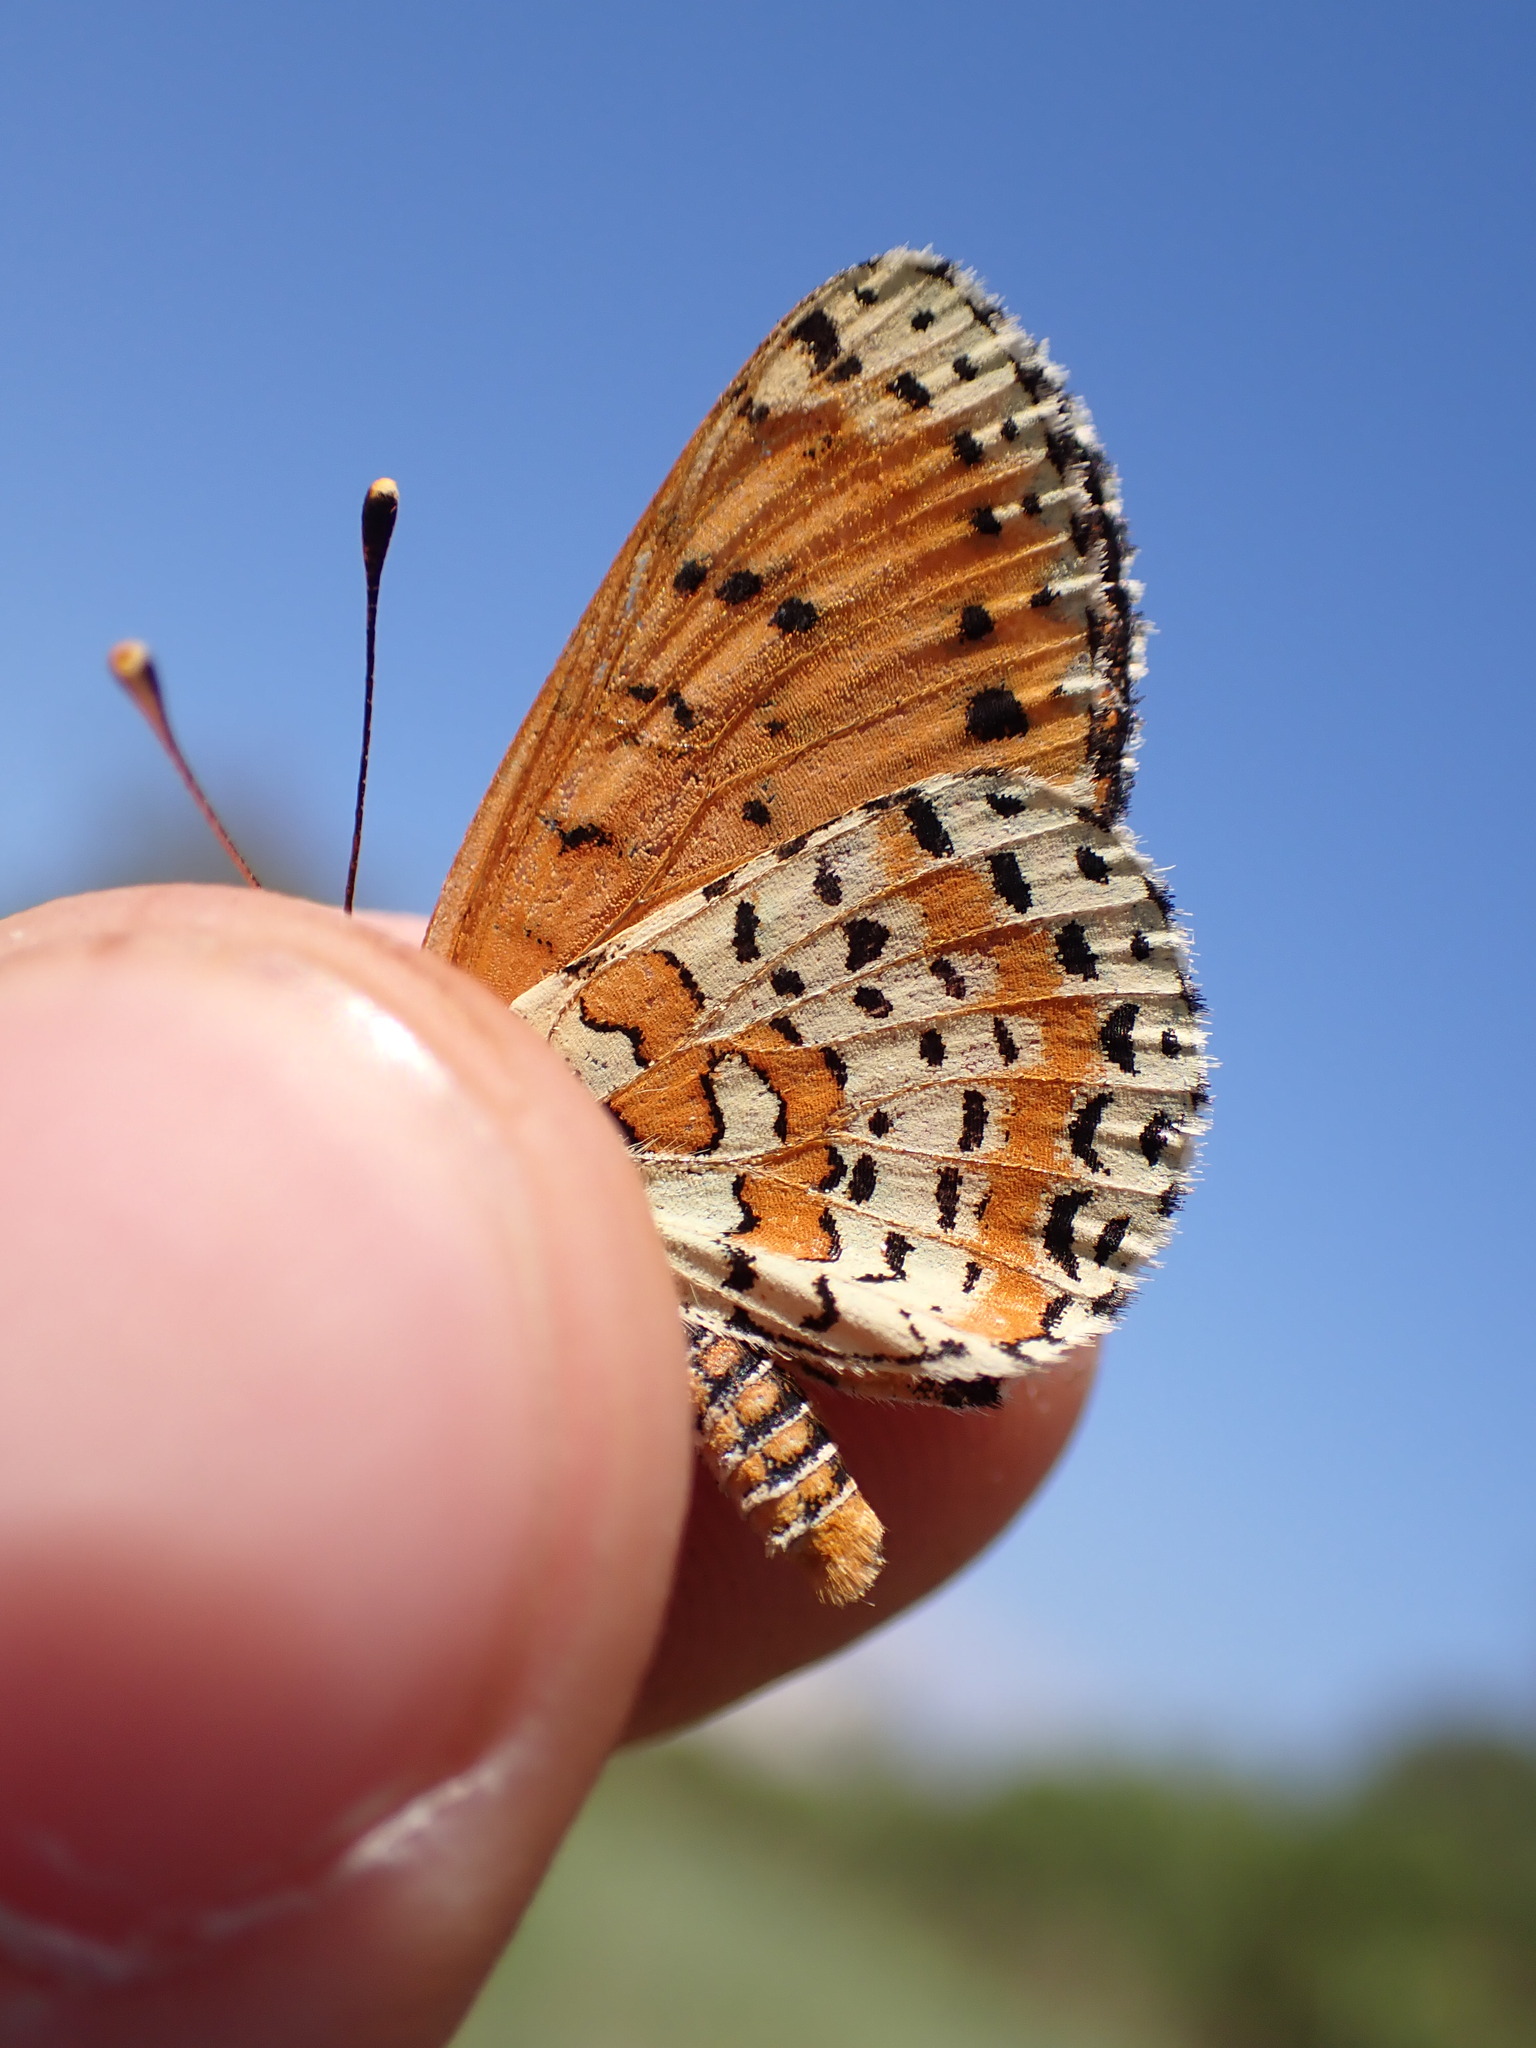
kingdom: Animalia
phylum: Arthropoda
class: Insecta
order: Lepidoptera
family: Nymphalidae
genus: Melitaea
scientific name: Melitaea didyma
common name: Spotted fritillary
